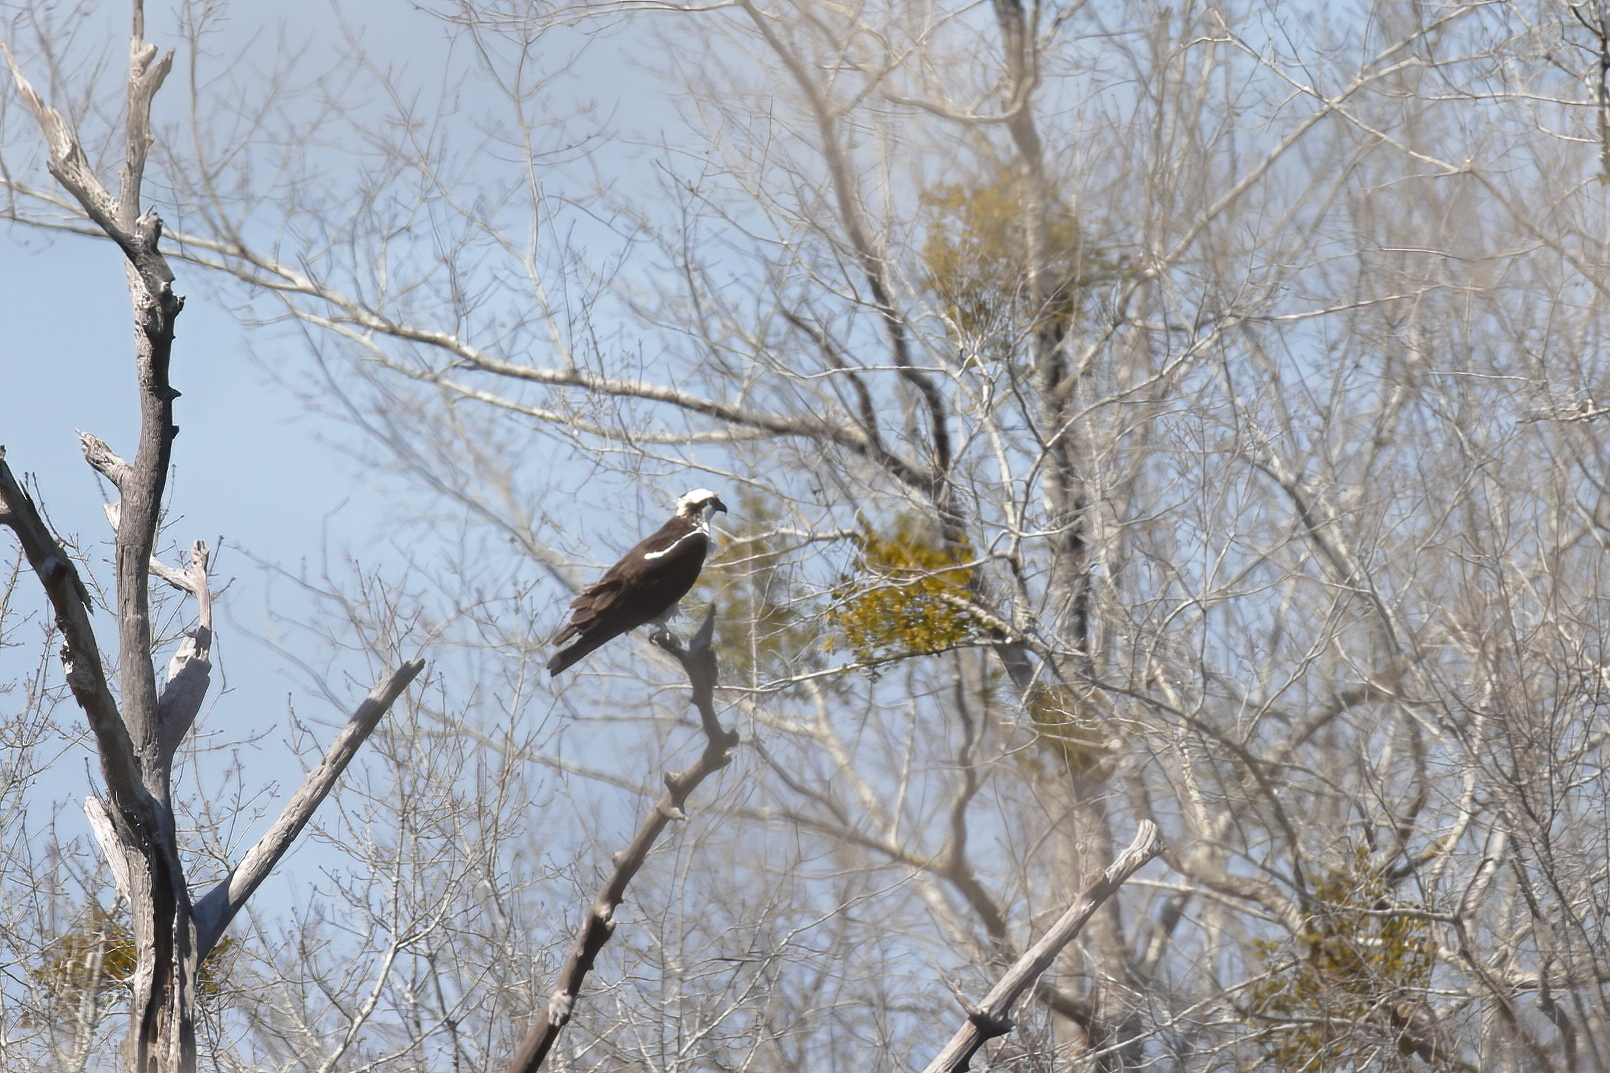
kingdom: Animalia
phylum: Chordata
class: Aves
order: Accipitriformes
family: Pandionidae
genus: Pandion
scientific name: Pandion haliaetus
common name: Osprey
